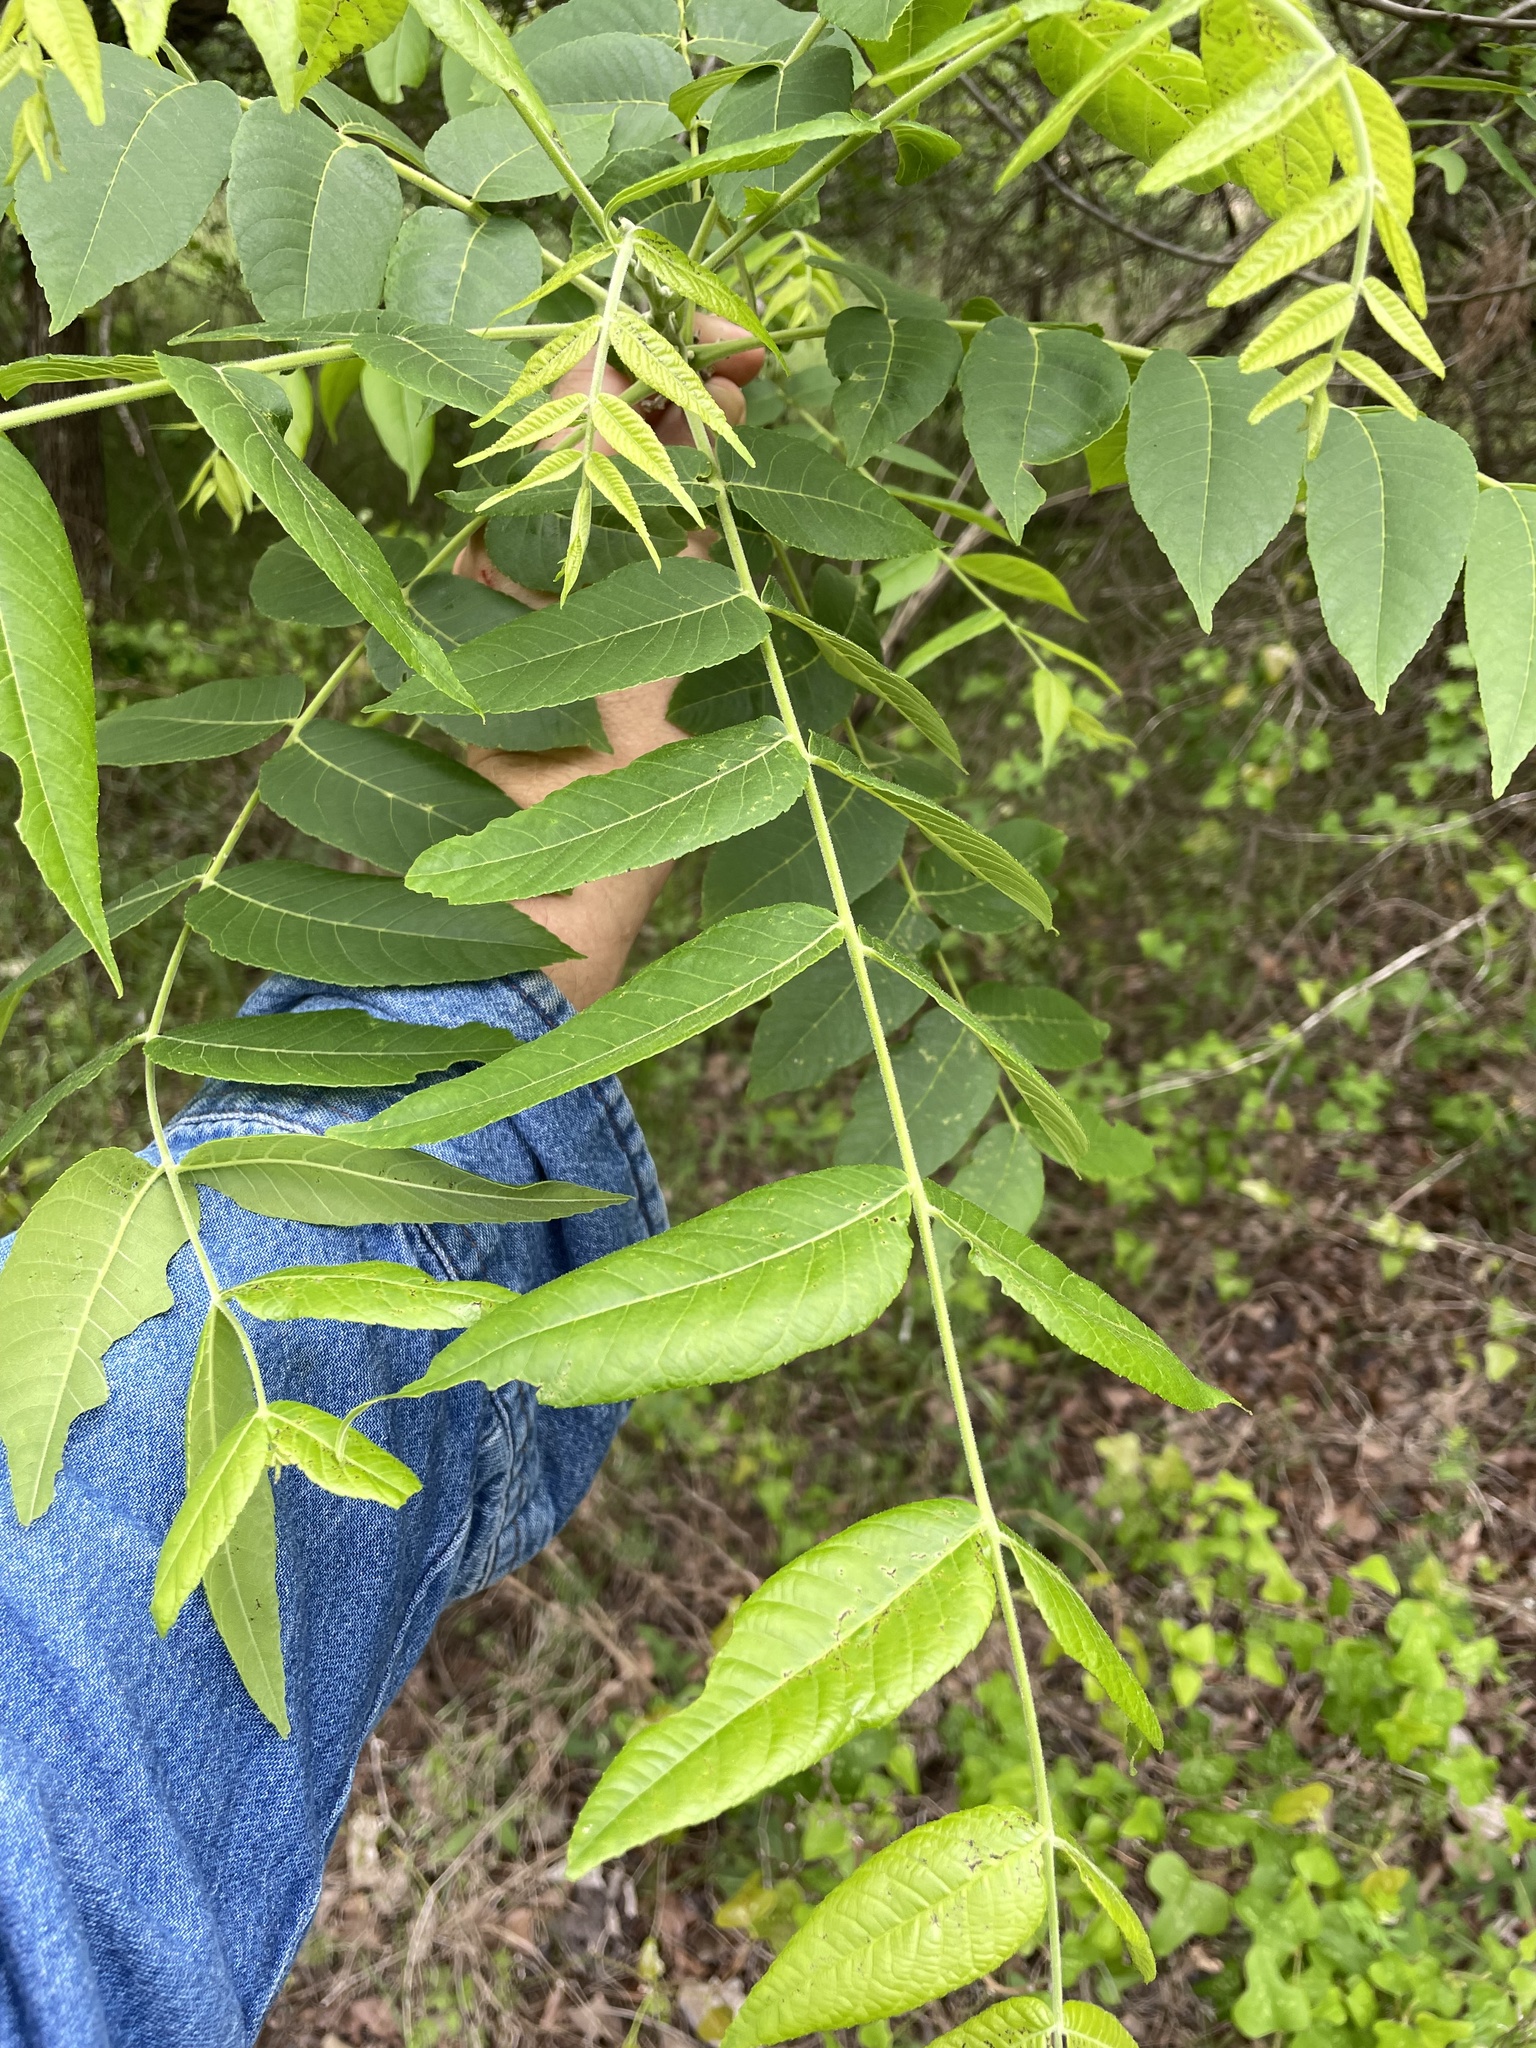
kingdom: Plantae
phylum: Tracheophyta
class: Magnoliopsida
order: Fagales
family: Juglandaceae
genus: Juglans
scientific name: Juglans nigra
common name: Black walnut
